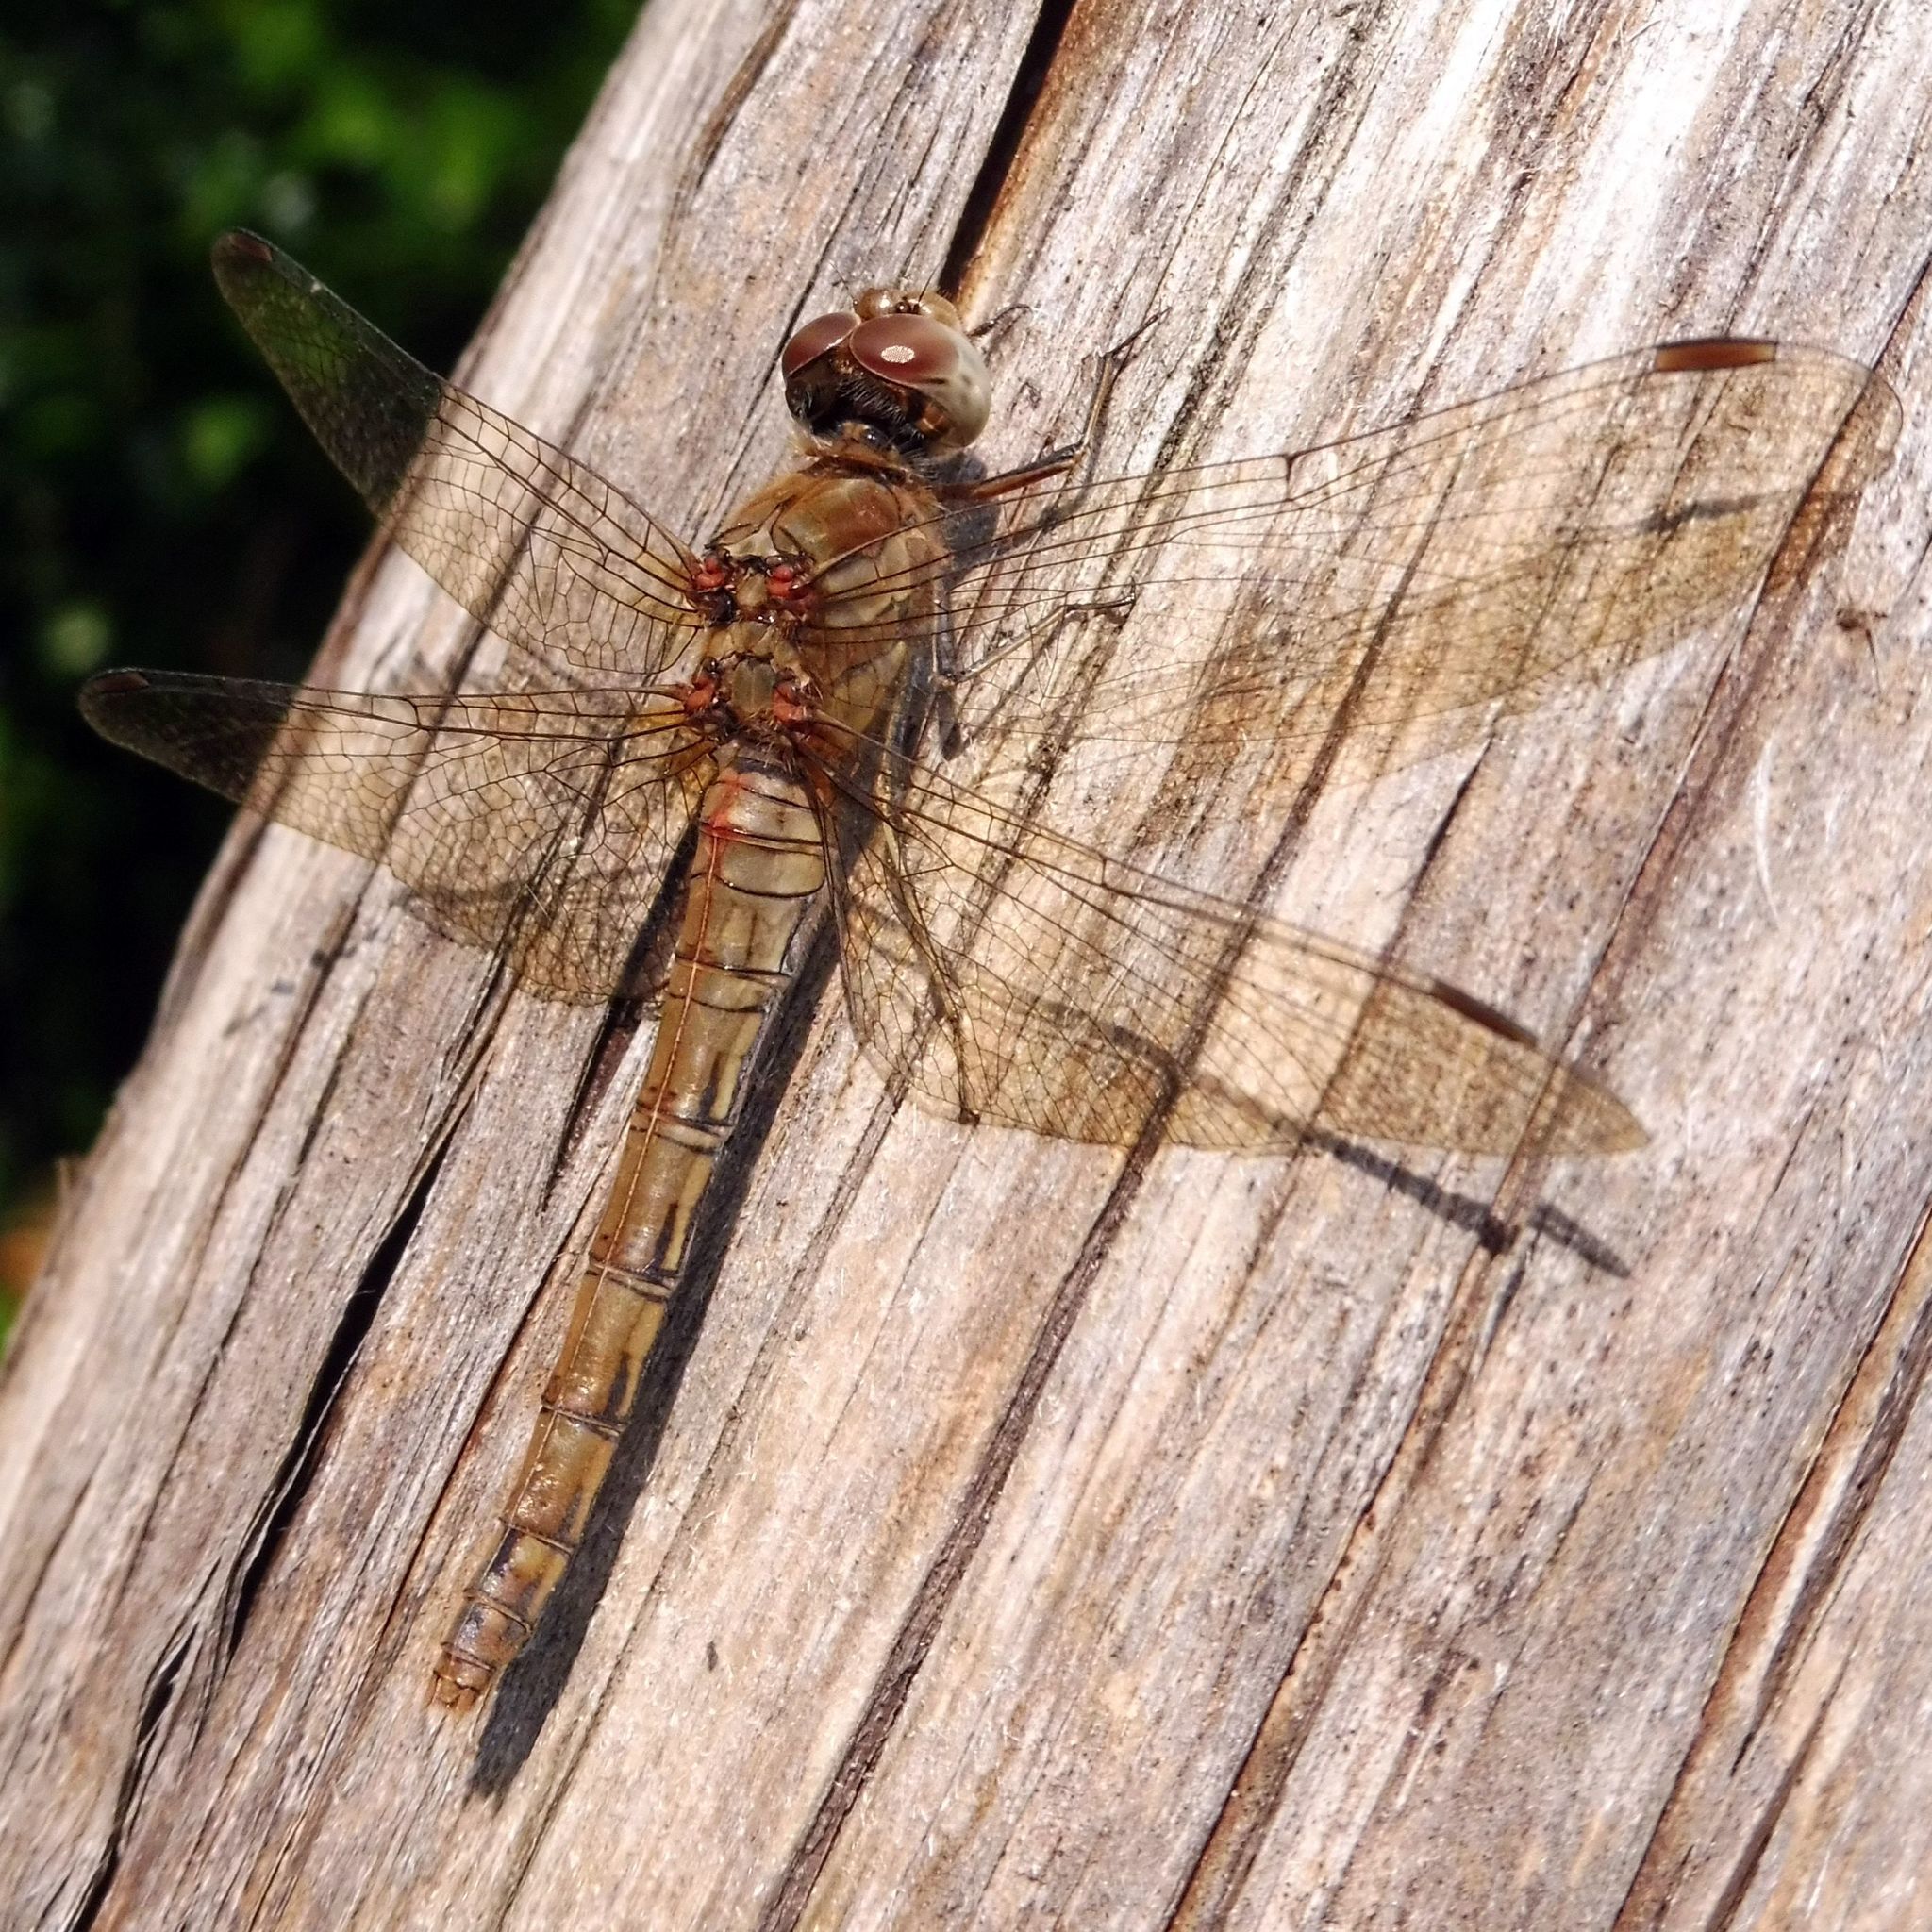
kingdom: Animalia
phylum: Arthropoda
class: Insecta
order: Odonata
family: Libellulidae
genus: Sympetrum
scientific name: Sympetrum striolatum
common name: Common darter
